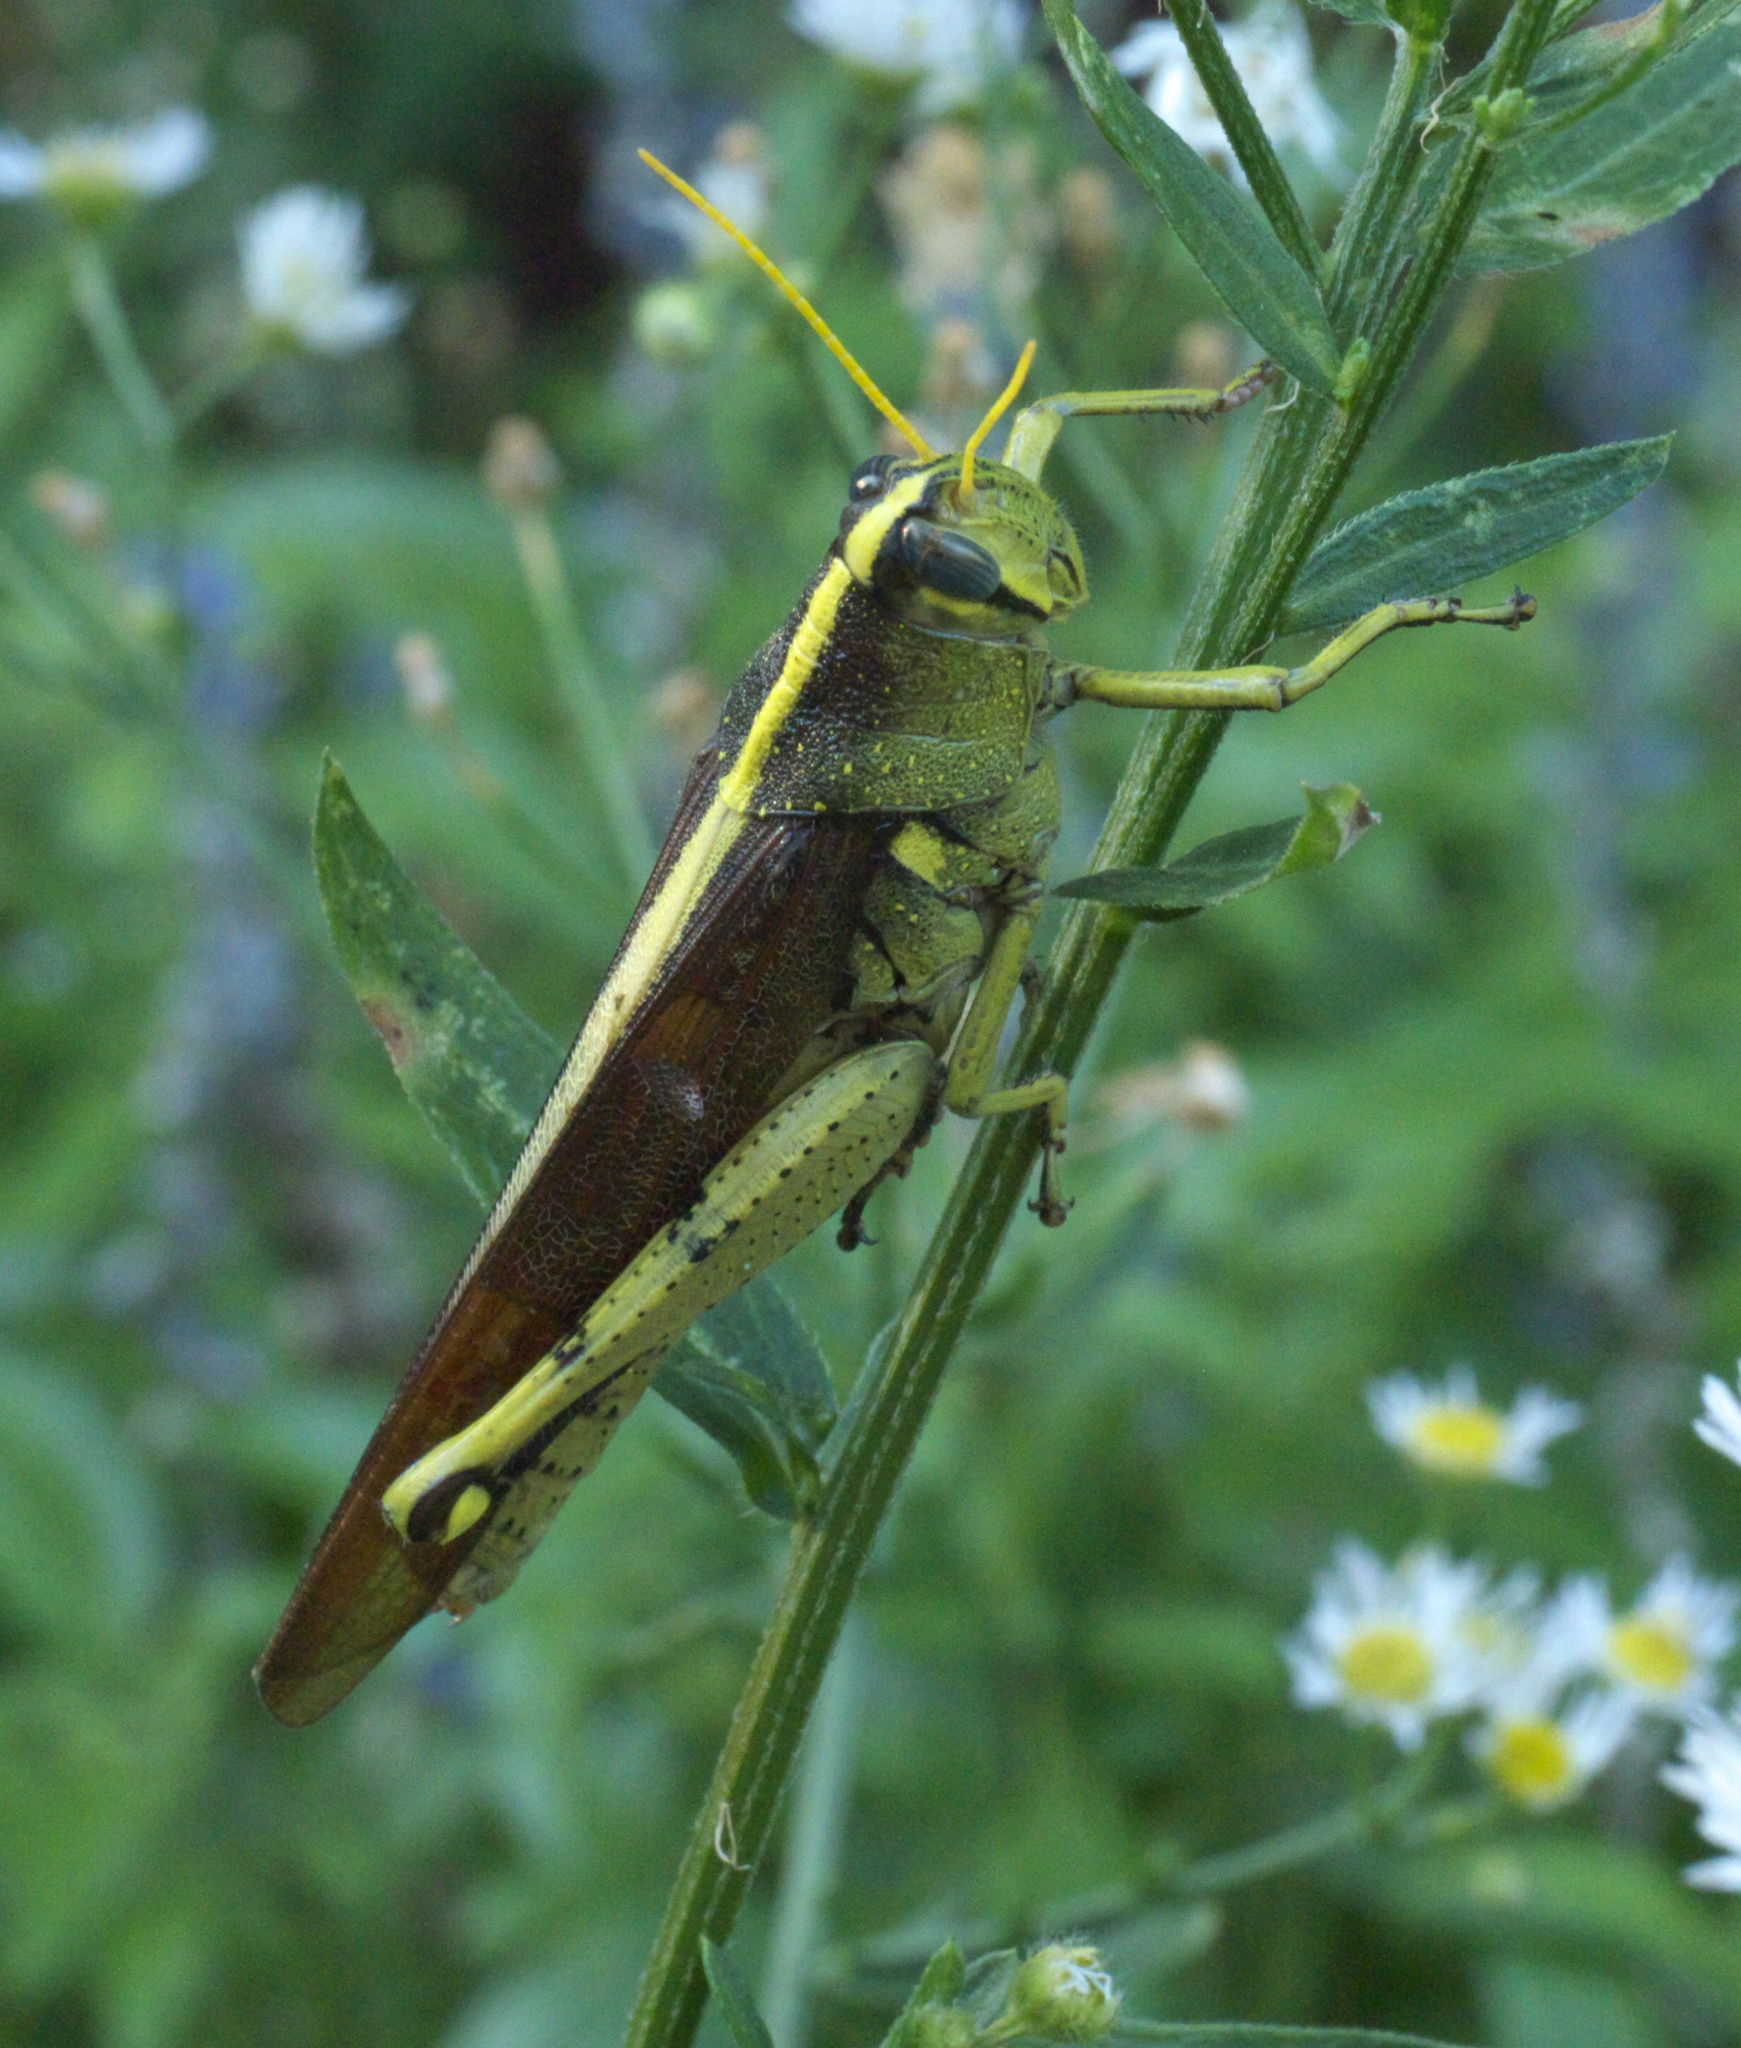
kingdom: Animalia
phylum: Arthropoda
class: Insecta
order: Orthoptera
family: Acrididae
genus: Schistocerca
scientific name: Schistocerca obscura
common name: Obscure bird grasshopper
